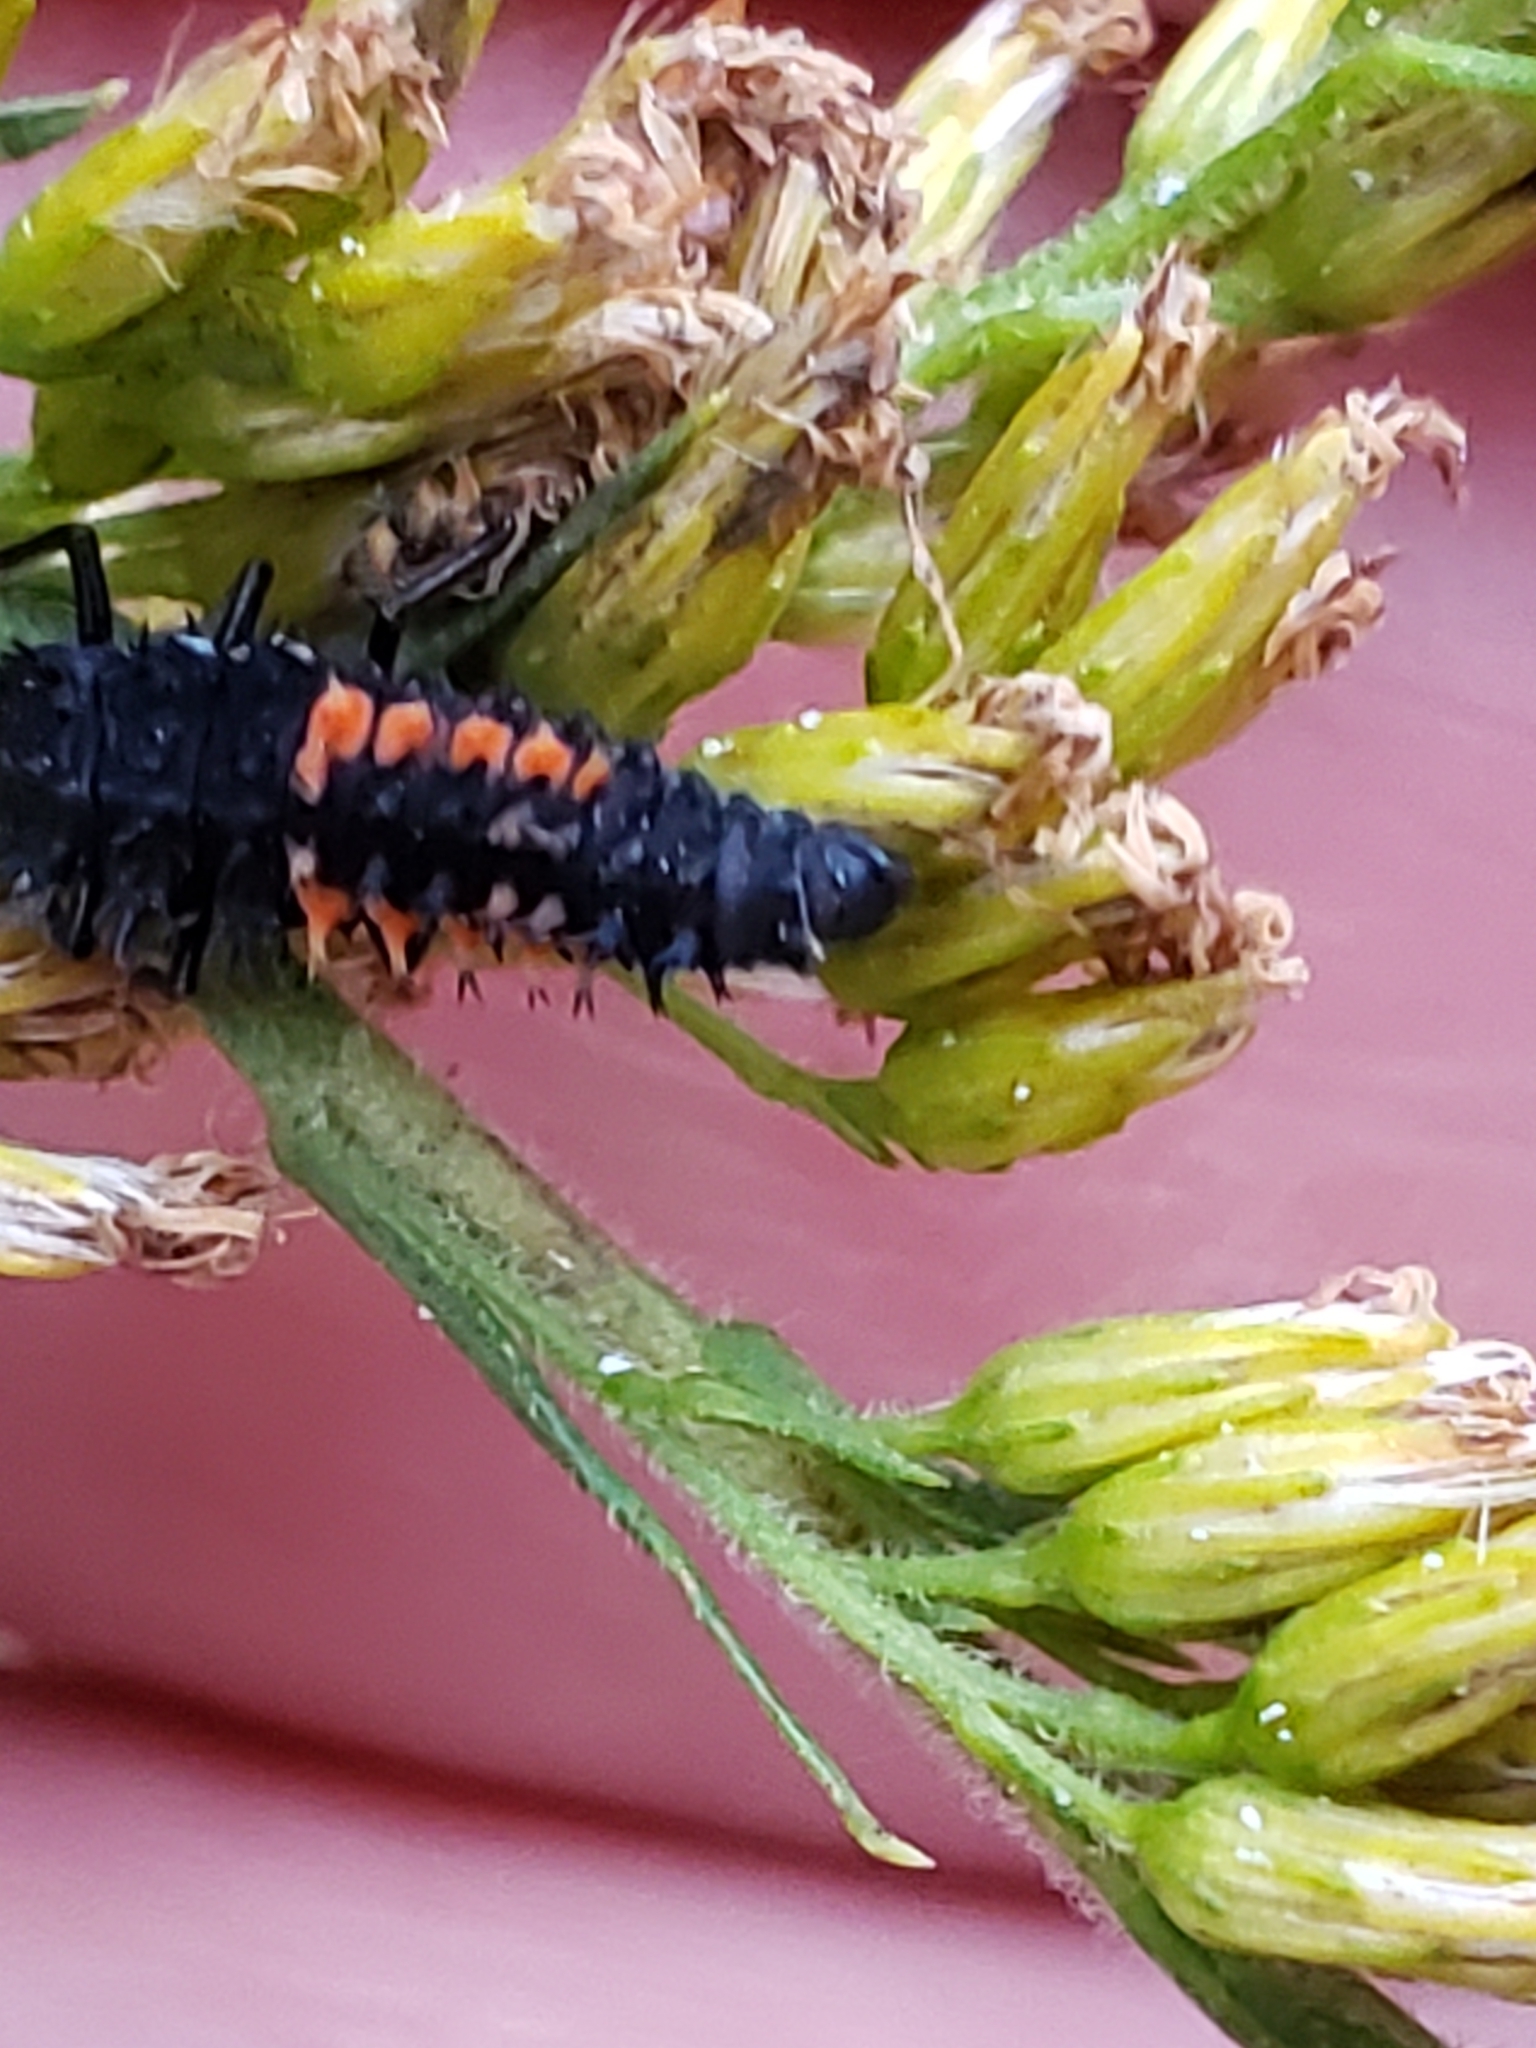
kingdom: Animalia
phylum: Arthropoda
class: Insecta
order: Coleoptera
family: Coccinellidae
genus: Harmonia
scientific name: Harmonia axyridis
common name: Harlequin ladybird
